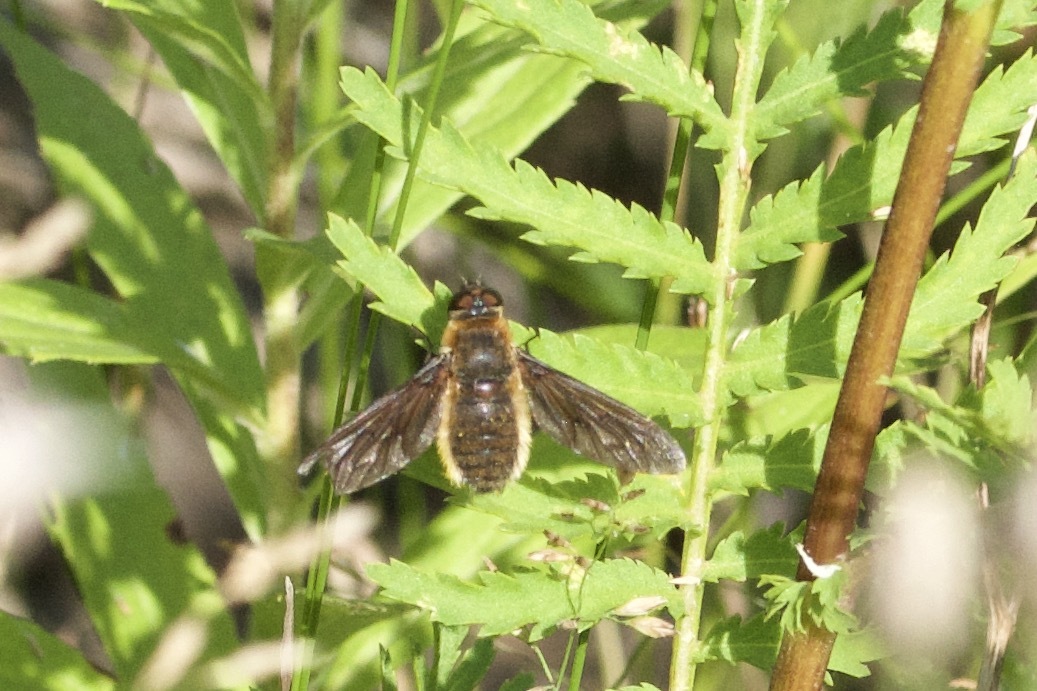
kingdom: Animalia
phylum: Arthropoda
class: Insecta
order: Diptera
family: Bombyliidae
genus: Poecilanthrax
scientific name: Poecilanthrax tegminipennis
